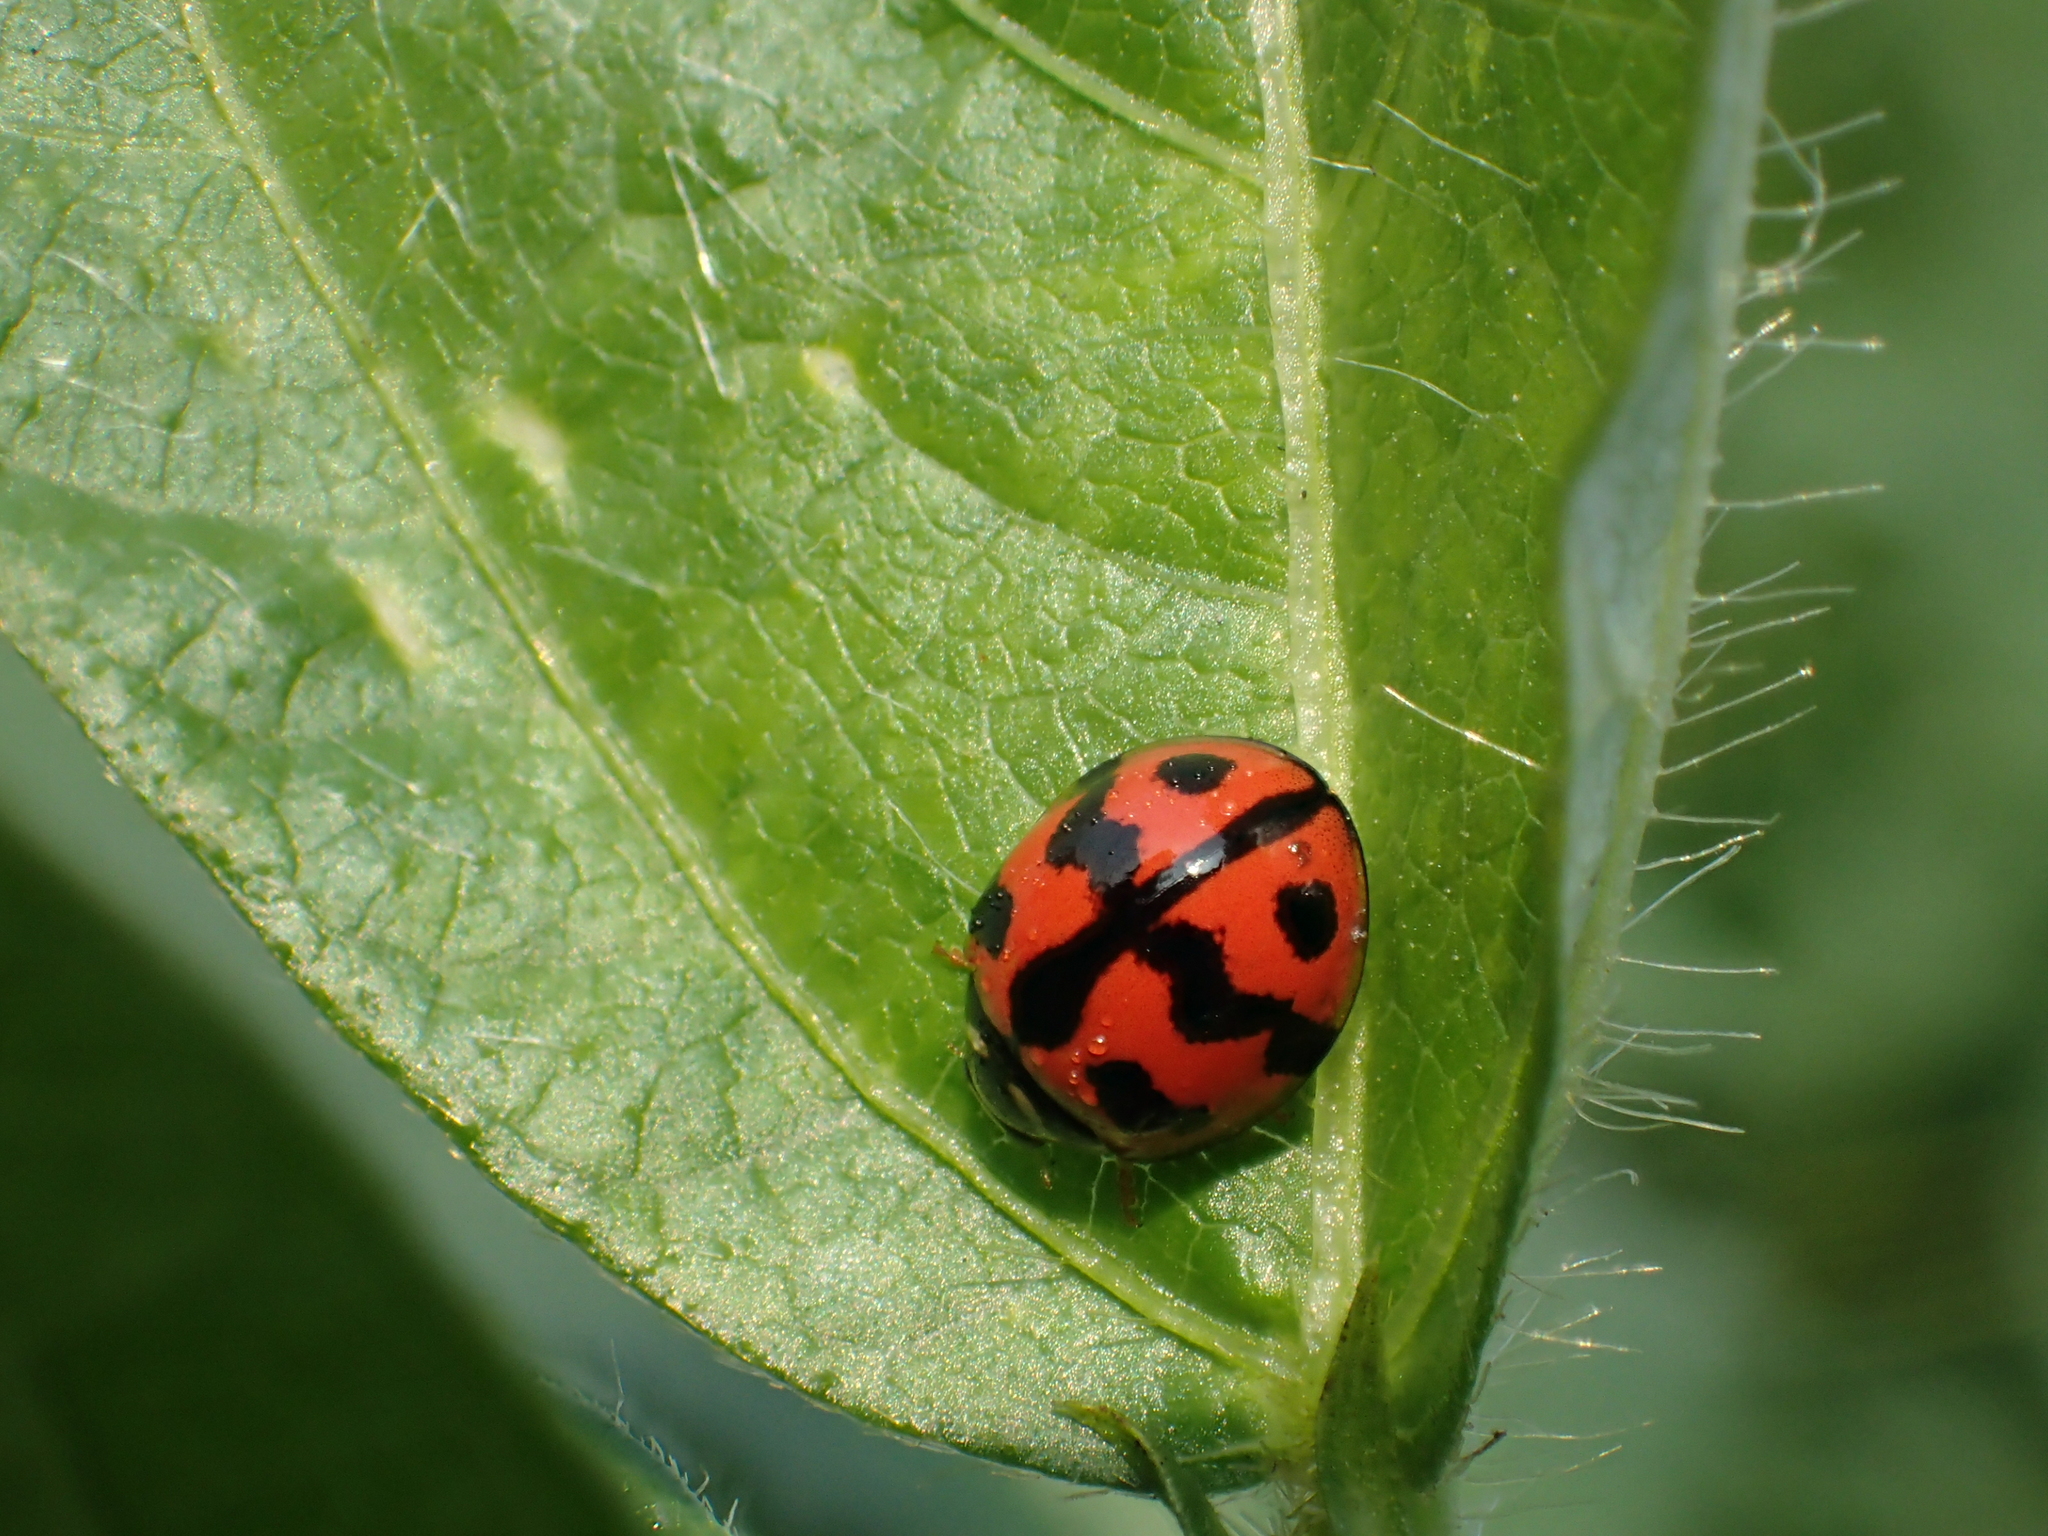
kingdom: Animalia
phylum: Arthropoda
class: Insecta
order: Coleoptera
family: Coccinellidae
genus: Cheilomenes
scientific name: Cheilomenes sexmaculata
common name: Ladybird beetle
